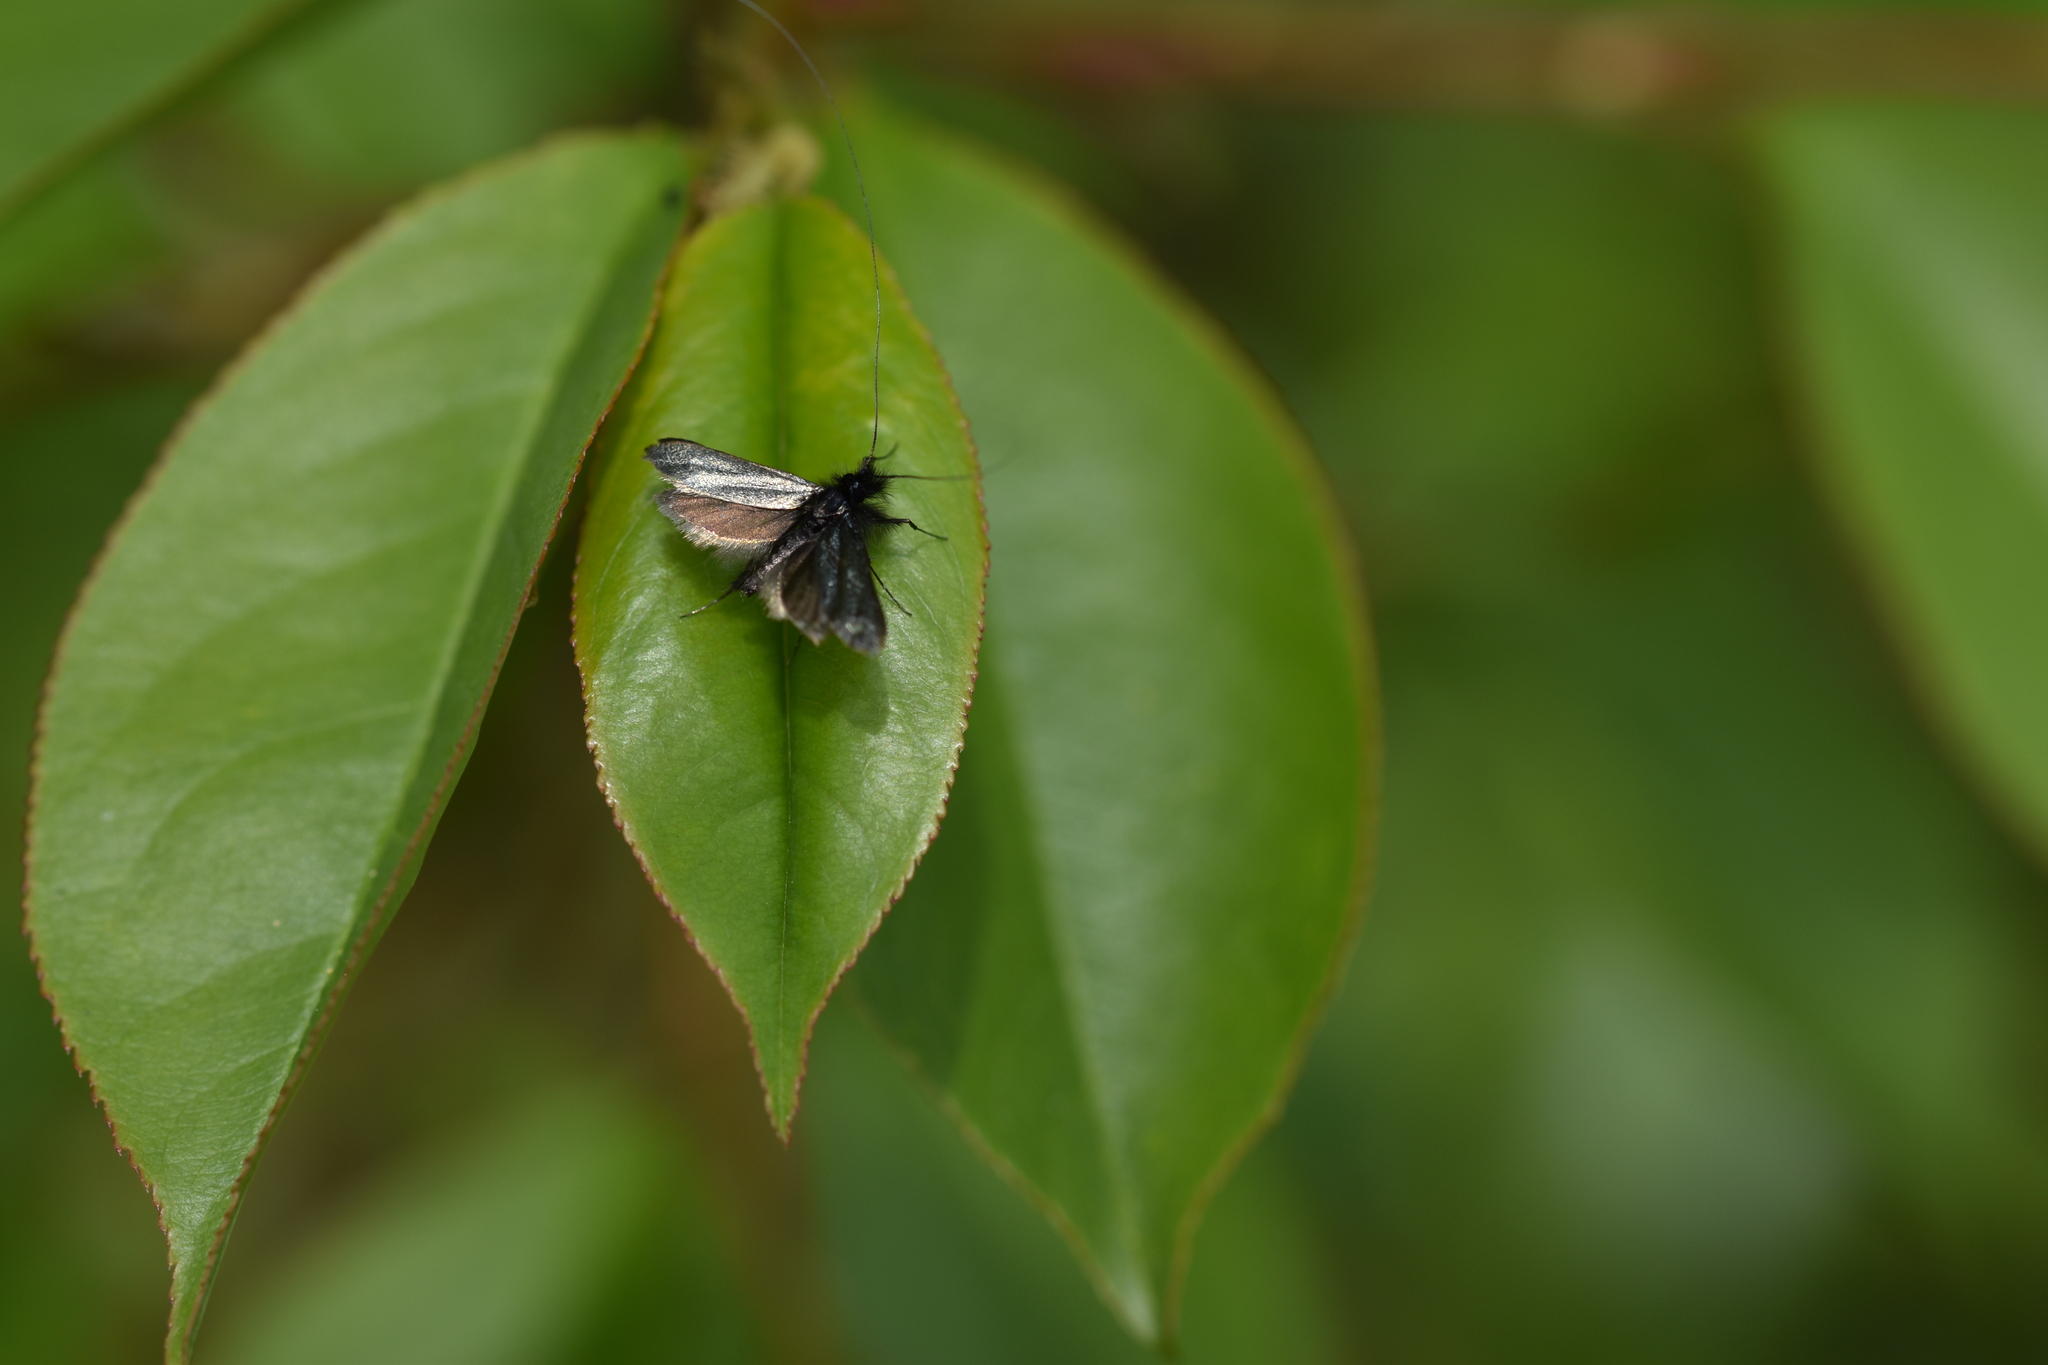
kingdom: Animalia
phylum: Arthropoda
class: Insecta
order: Lepidoptera
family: Adelidae
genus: Adela
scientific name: Adela viridella
